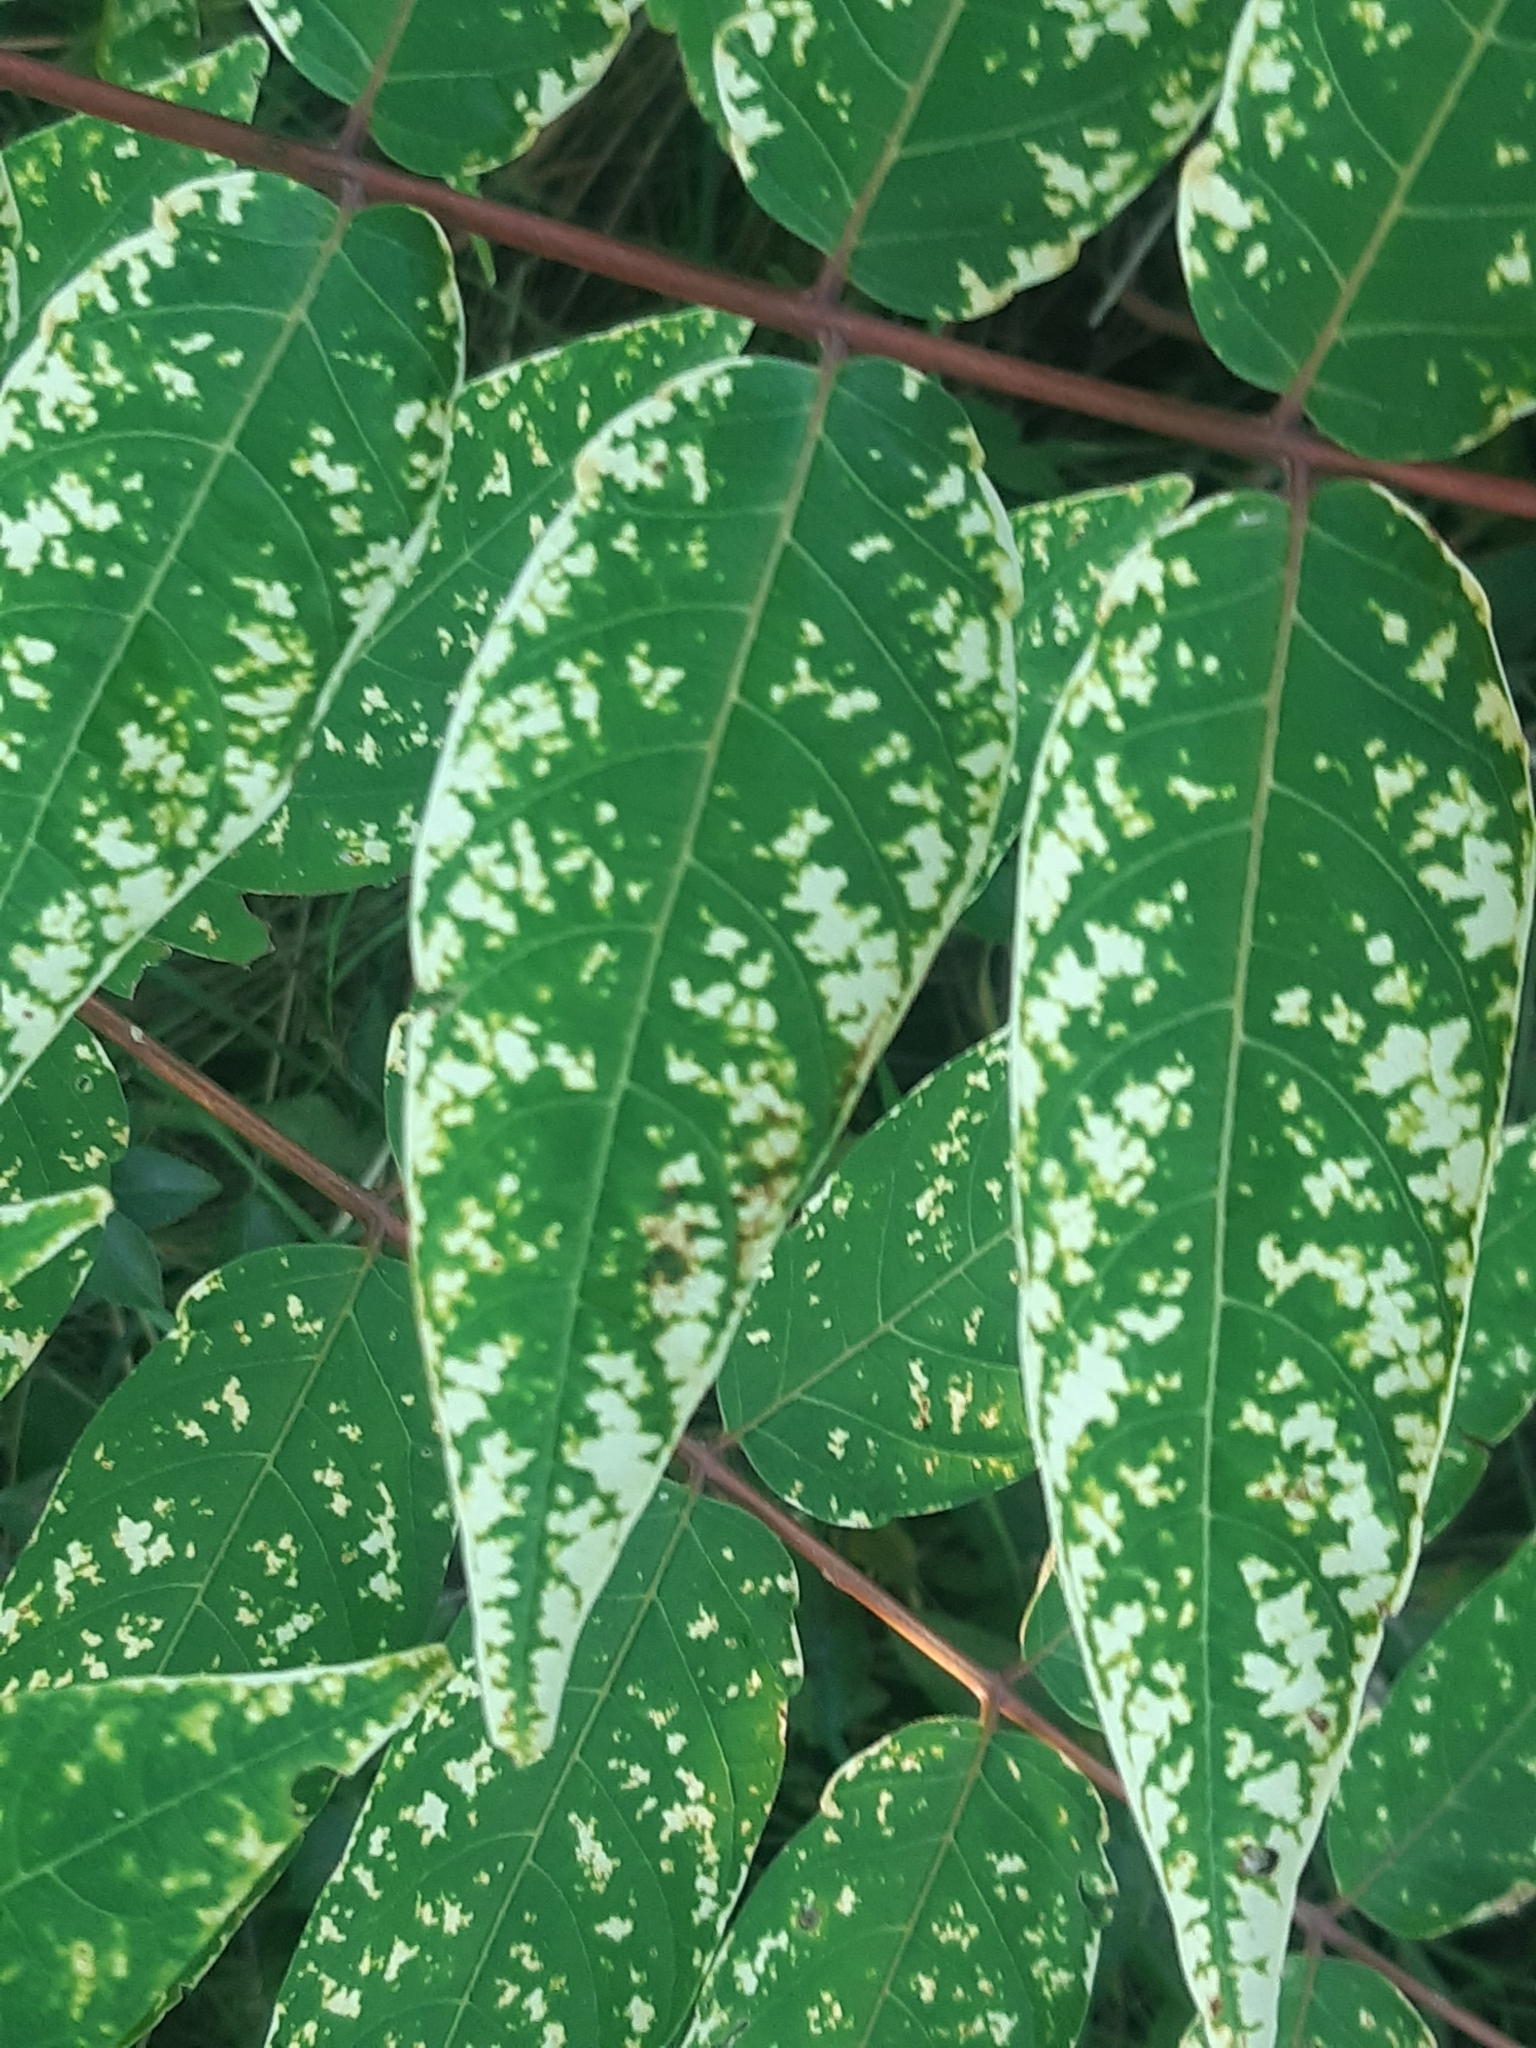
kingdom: Plantae
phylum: Tracheophyta
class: Magnoliopsida
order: Sapindales
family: Simaroubaceae
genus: Ailanthus
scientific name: Ailanthus altissima
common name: Tree-of-heaven
